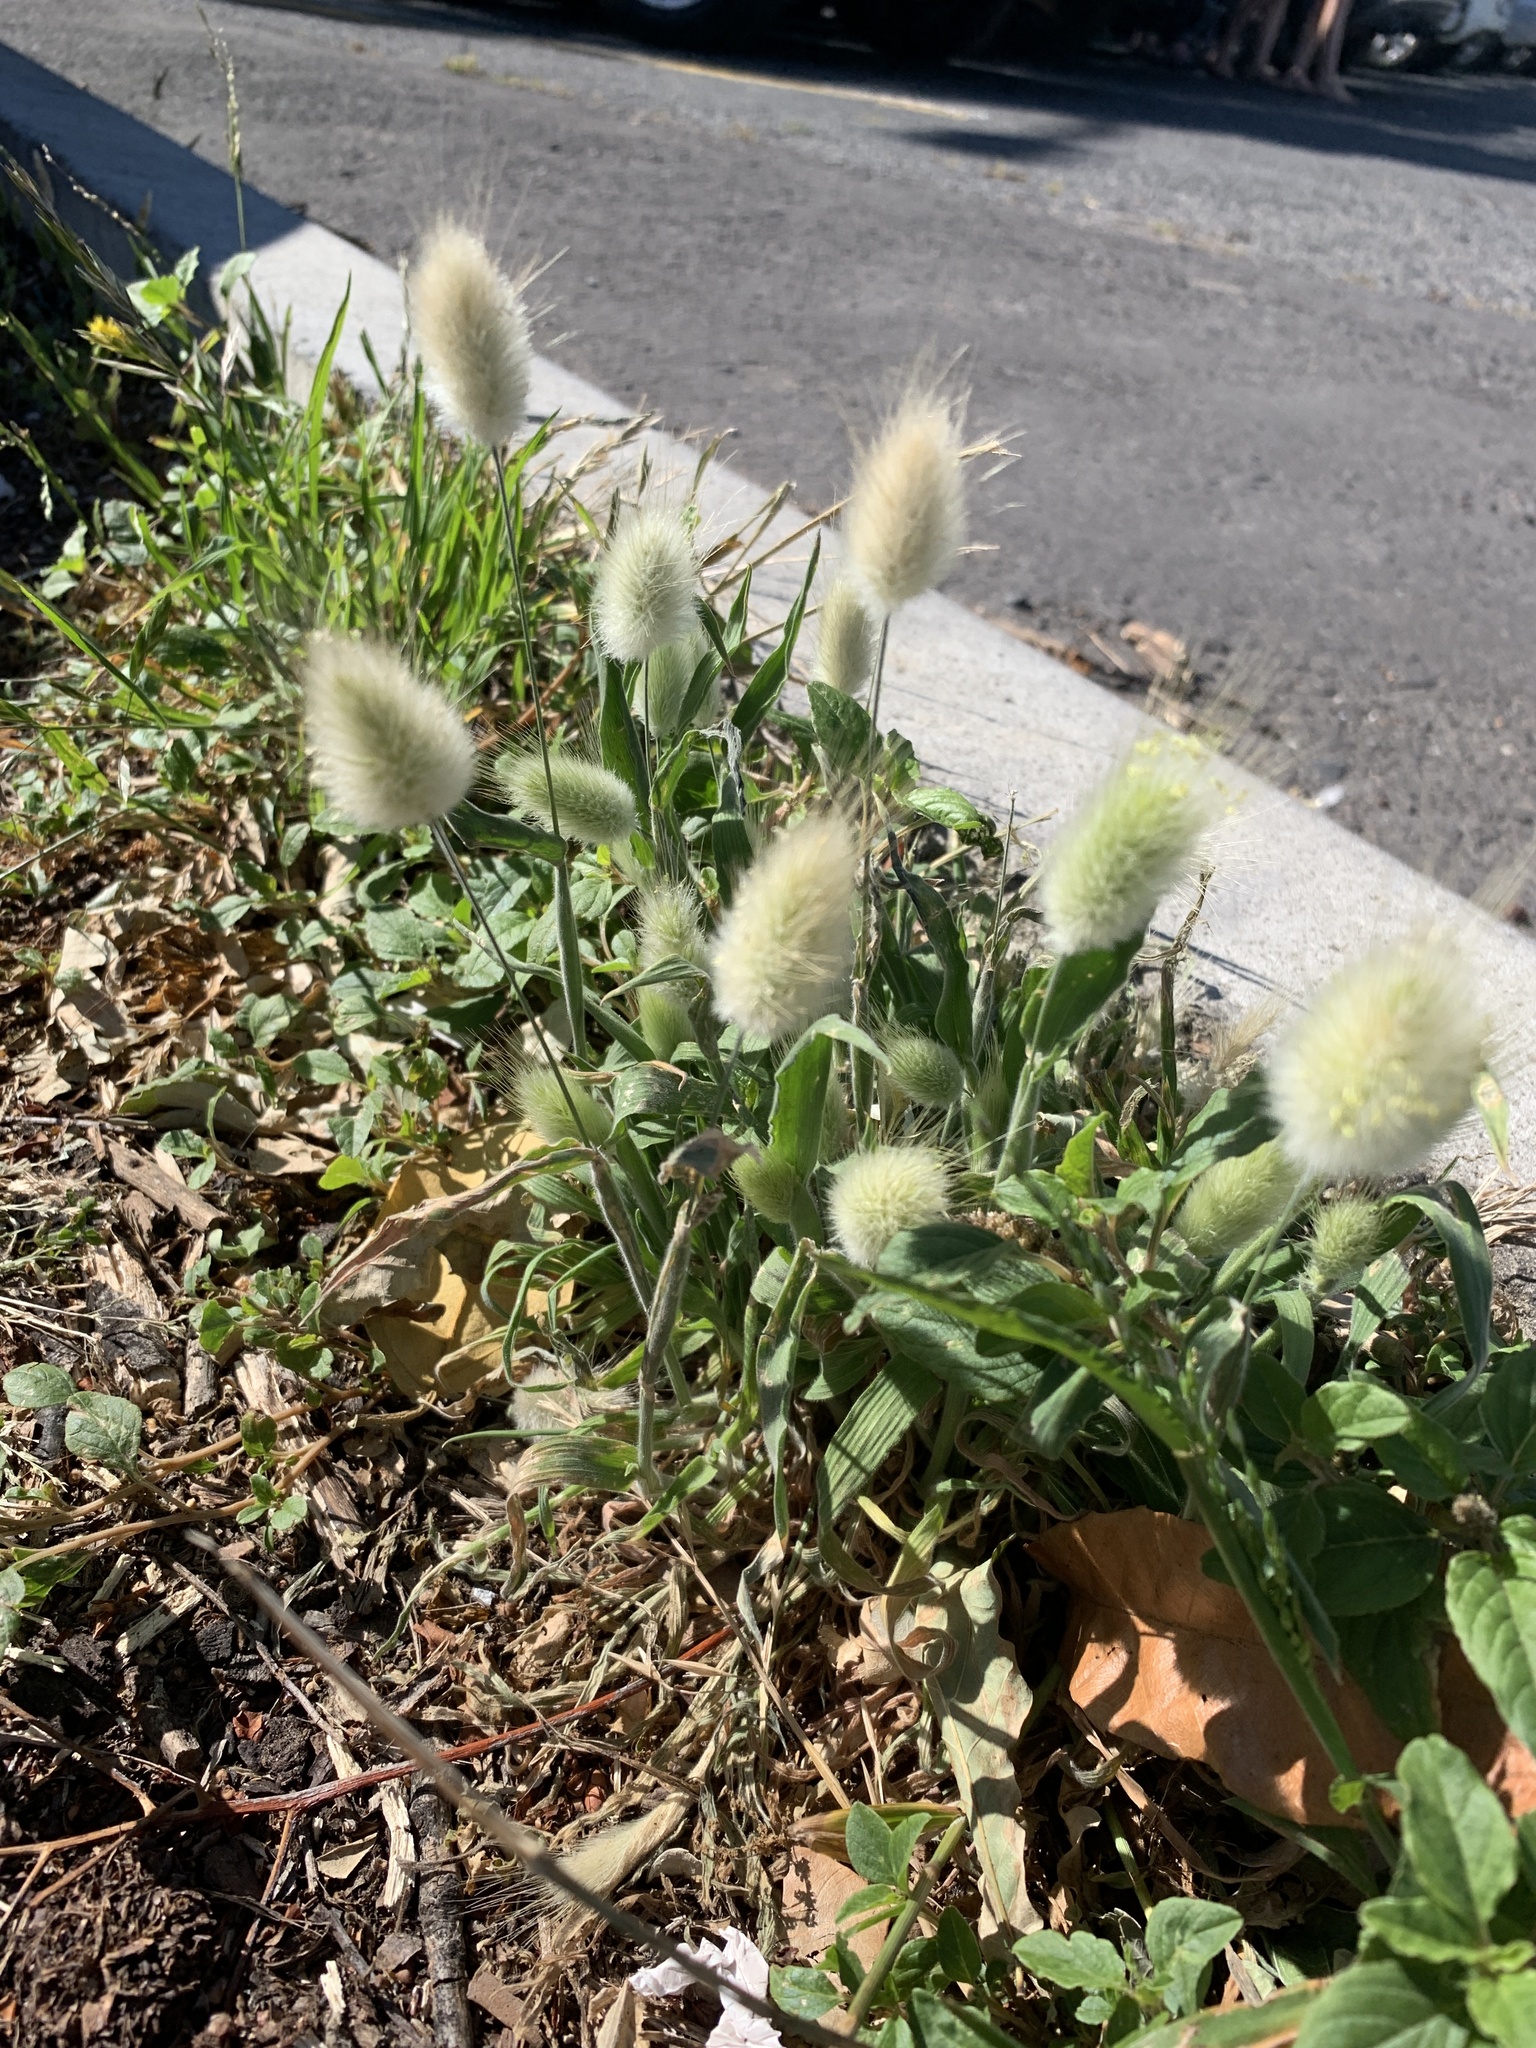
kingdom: Plantae
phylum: Tracheophyta
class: Liliopsida
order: Poales
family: Poaceae
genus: Lagurus
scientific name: Lagurus ovatus
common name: Hare's-tail
